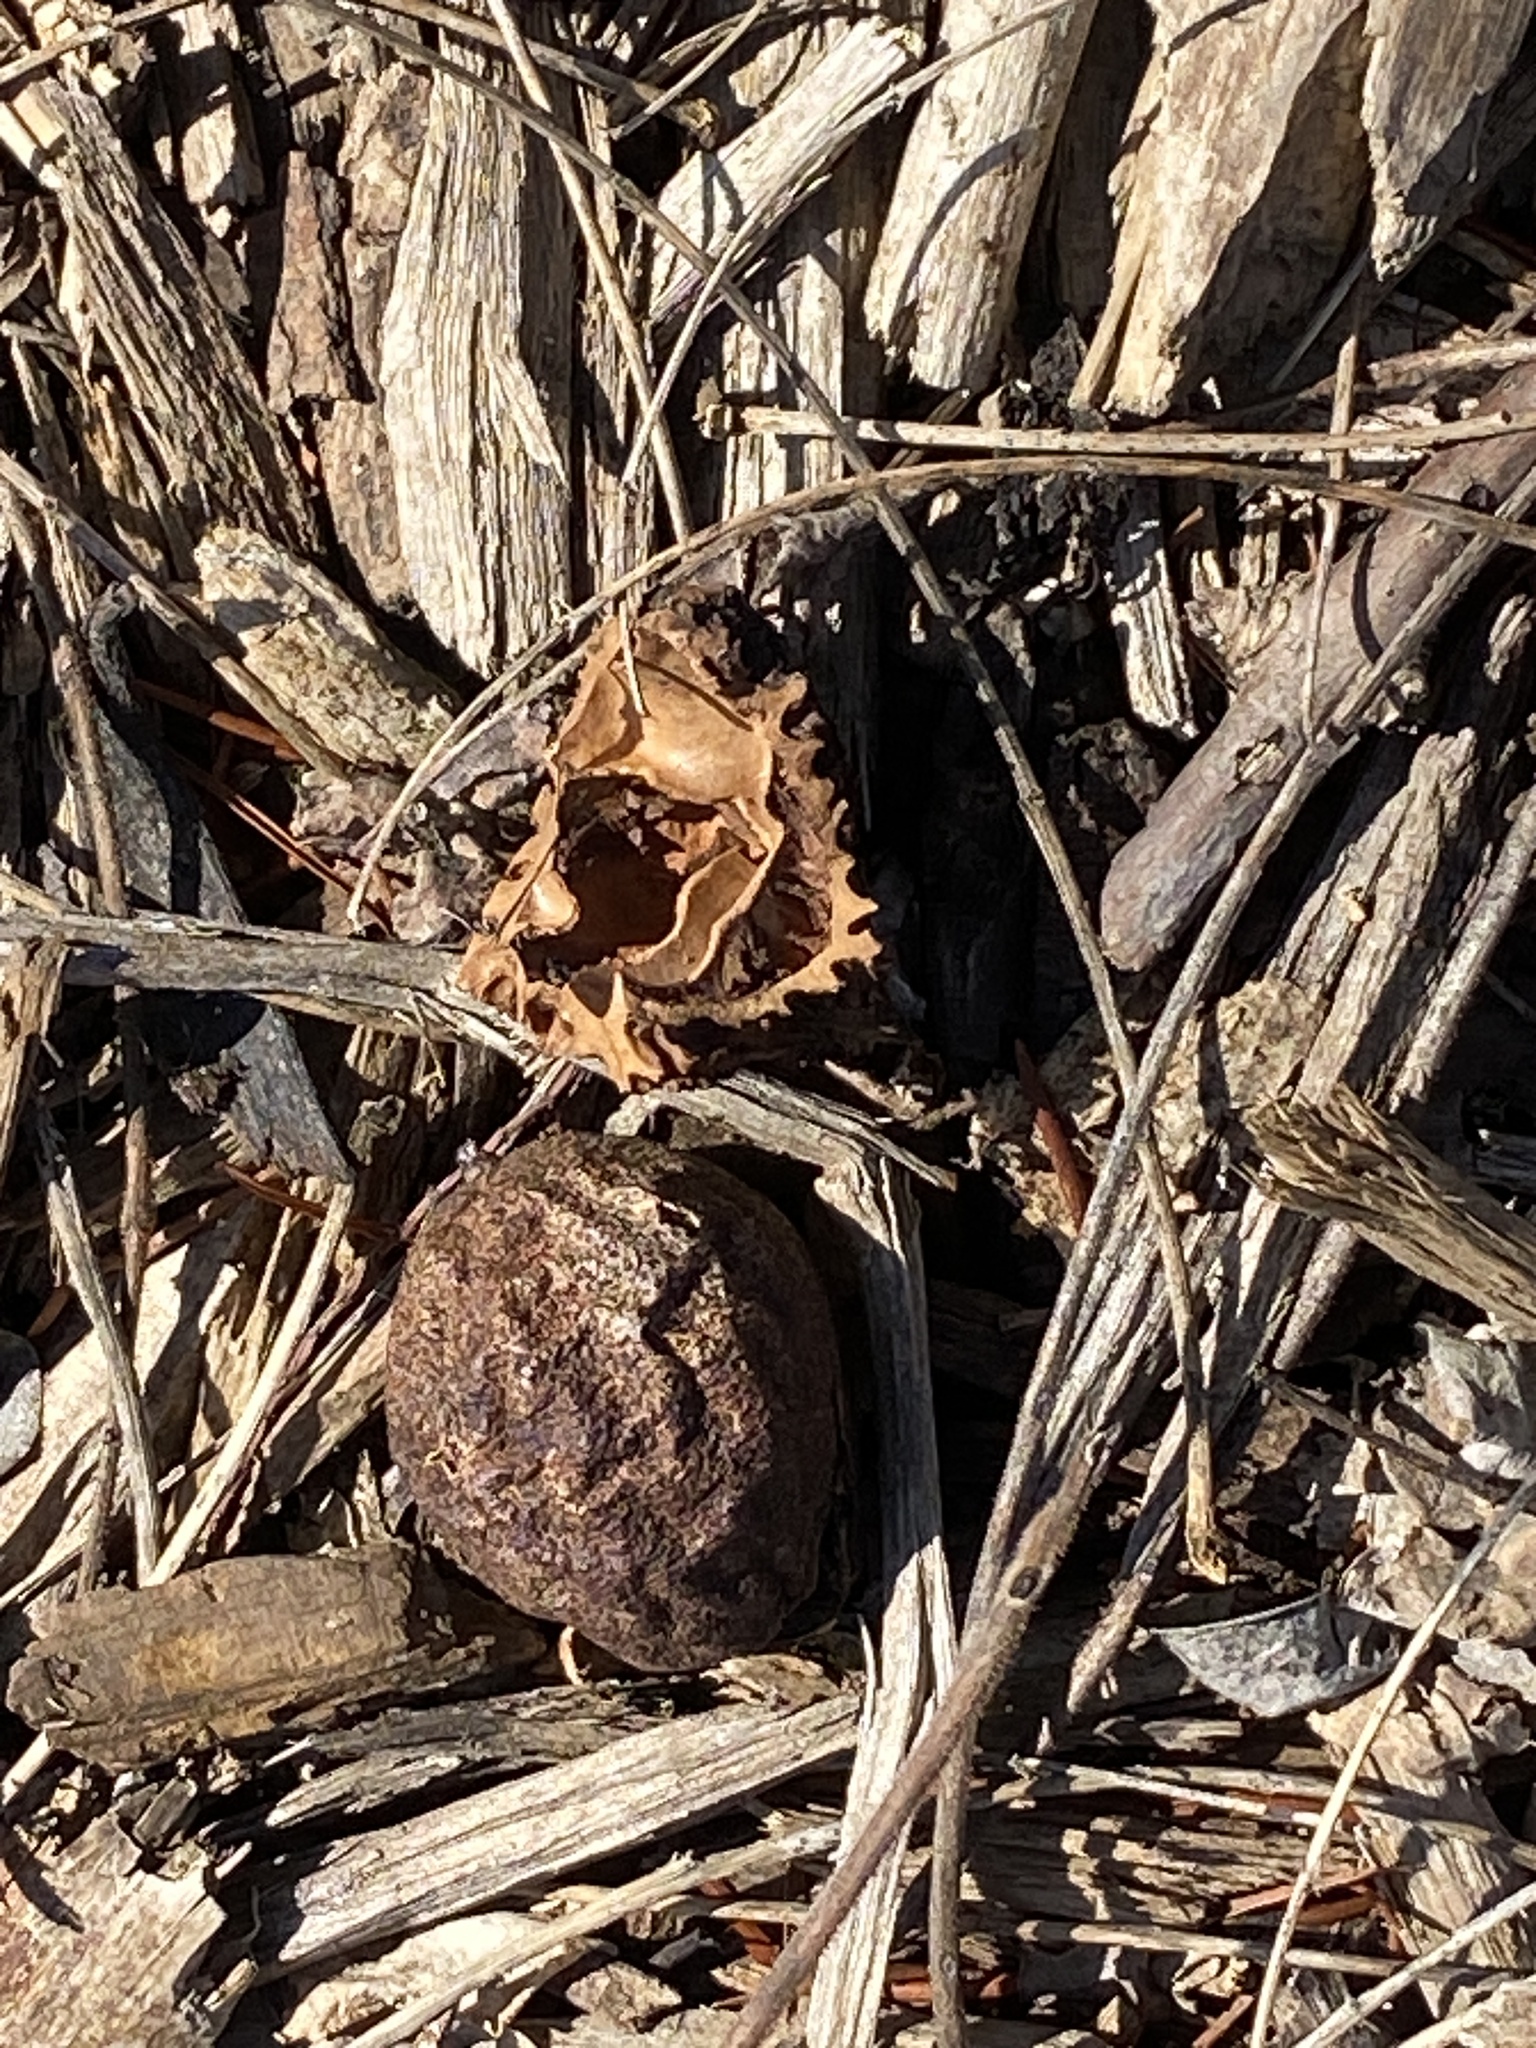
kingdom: Plantae
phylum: Tracheophyta
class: Magnoliopsida
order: Fagales
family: Juglandaceae
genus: Juglans
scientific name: Juglans nigra
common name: Black walnut
